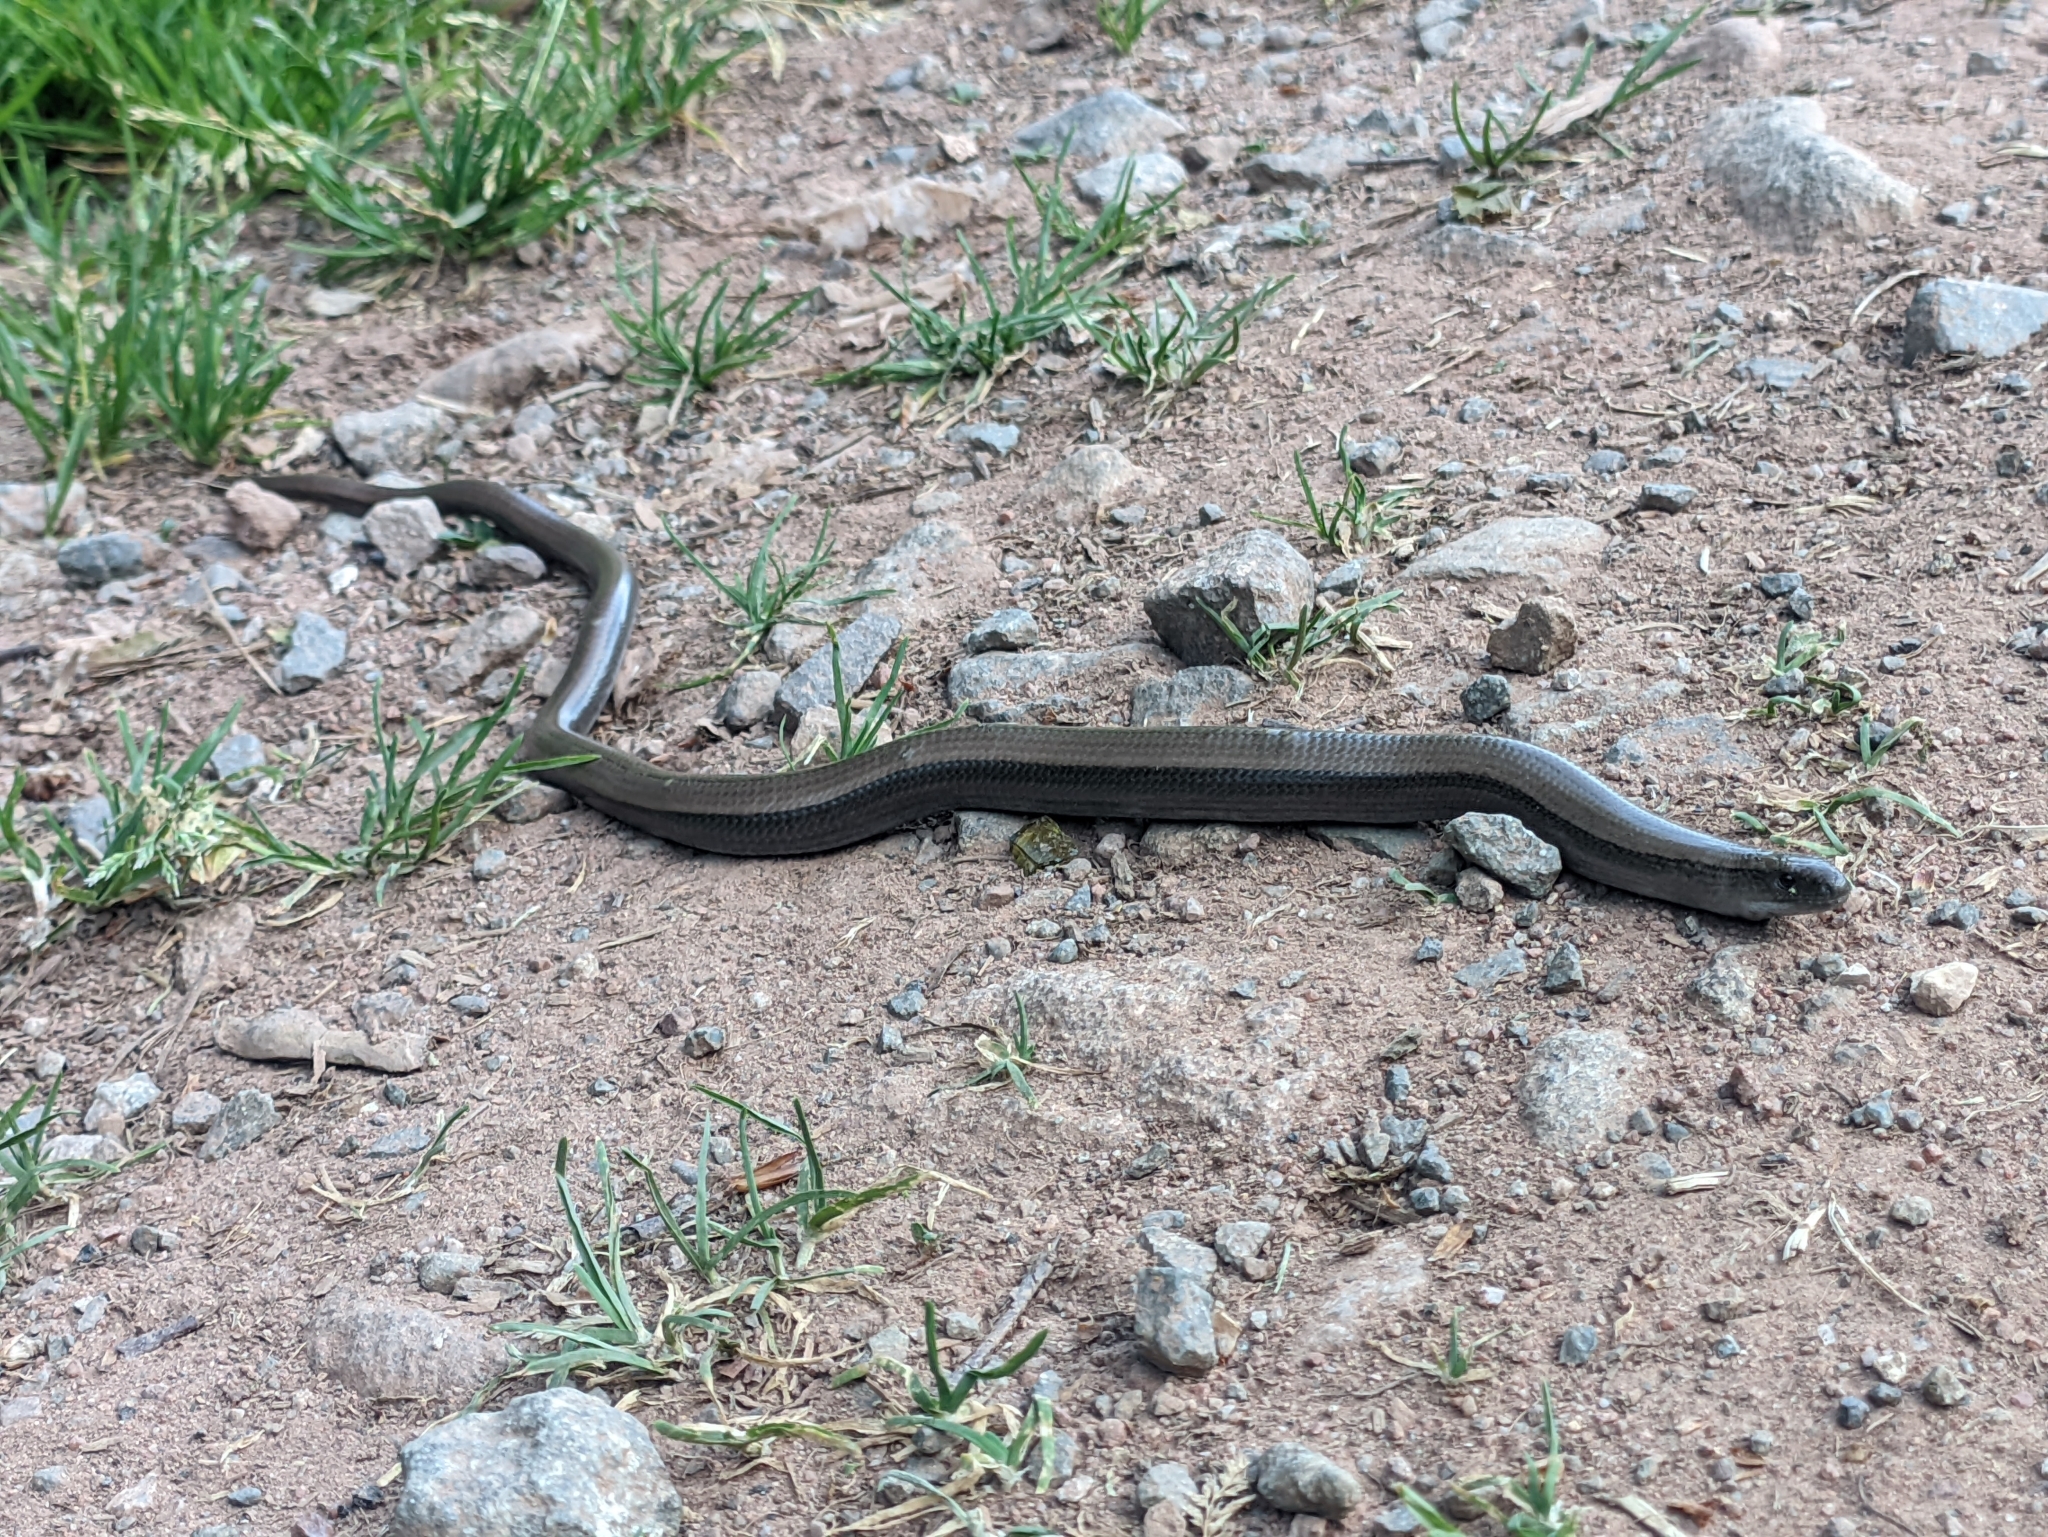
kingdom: Animalia
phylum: Chordata
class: Squamata
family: Anguidae
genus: Anguis
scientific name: Anguis fragilis
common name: Slow worm
